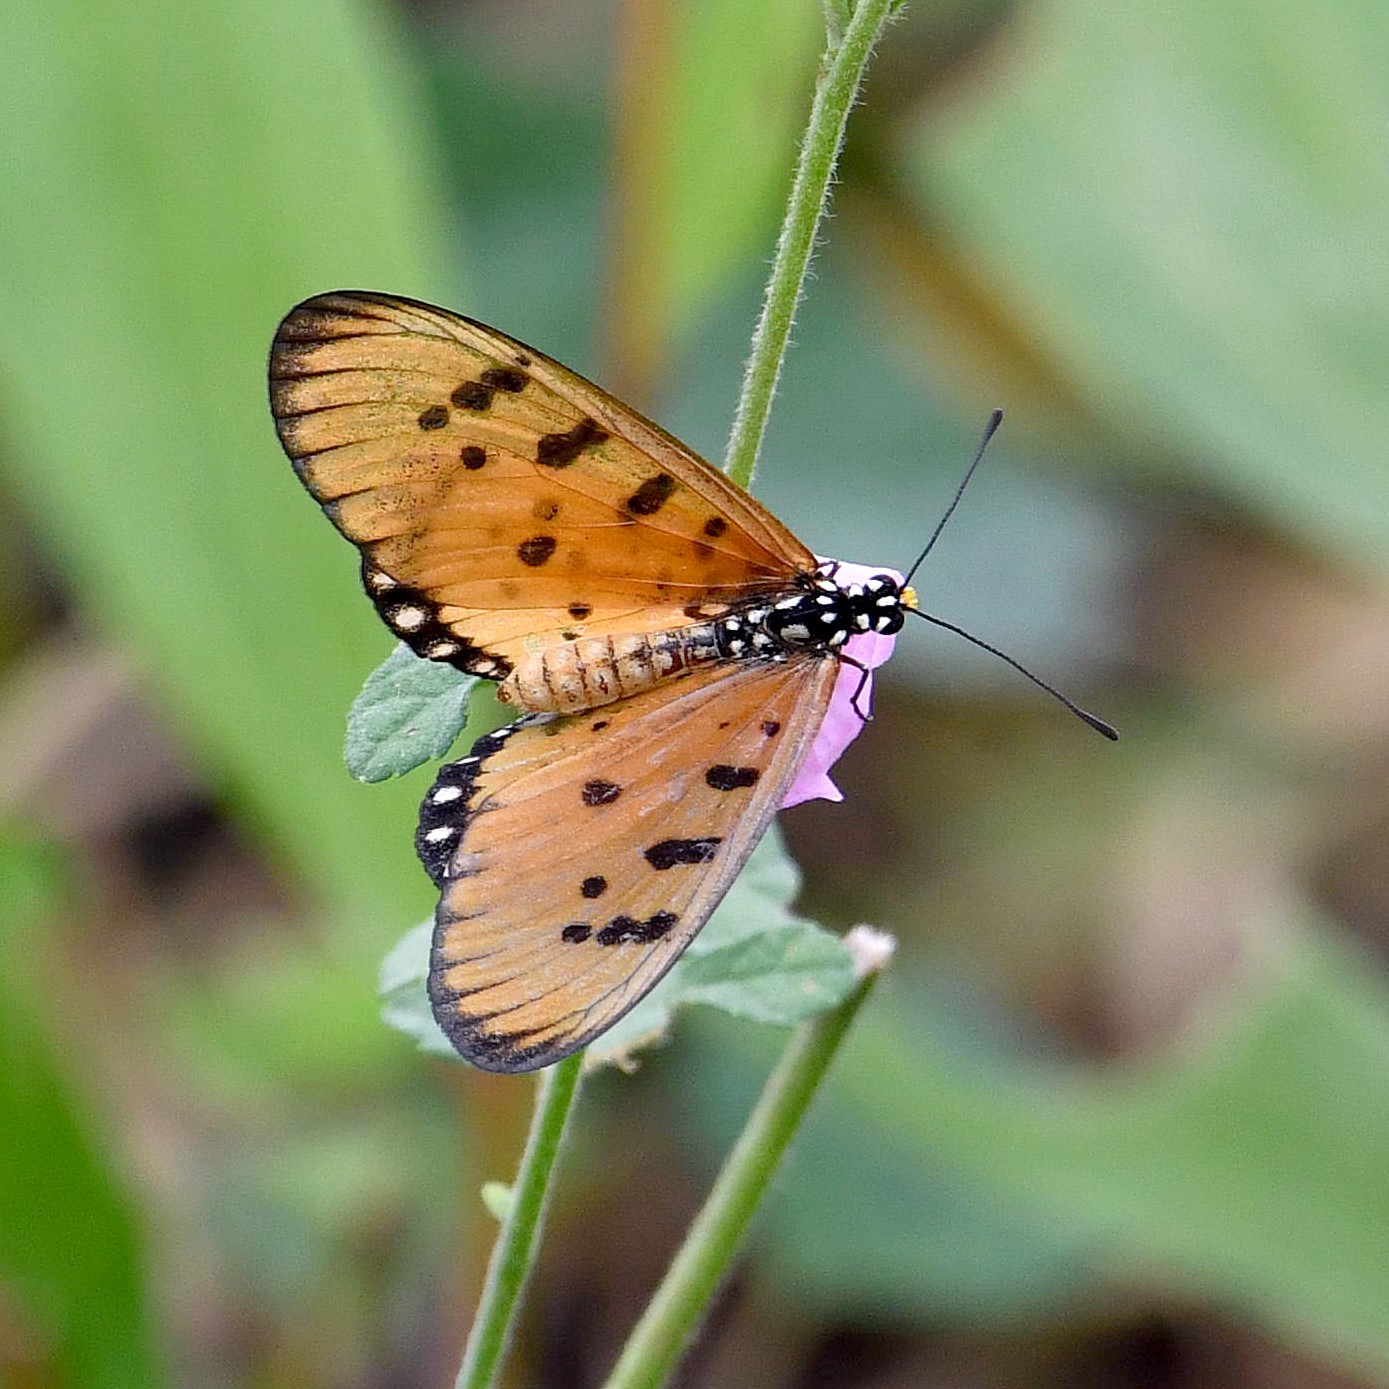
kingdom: Animalia
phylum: Arthropoda
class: Insecta
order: Lepidoptera
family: Nymphalidae
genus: Acraea
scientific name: Acraea terpsicore
